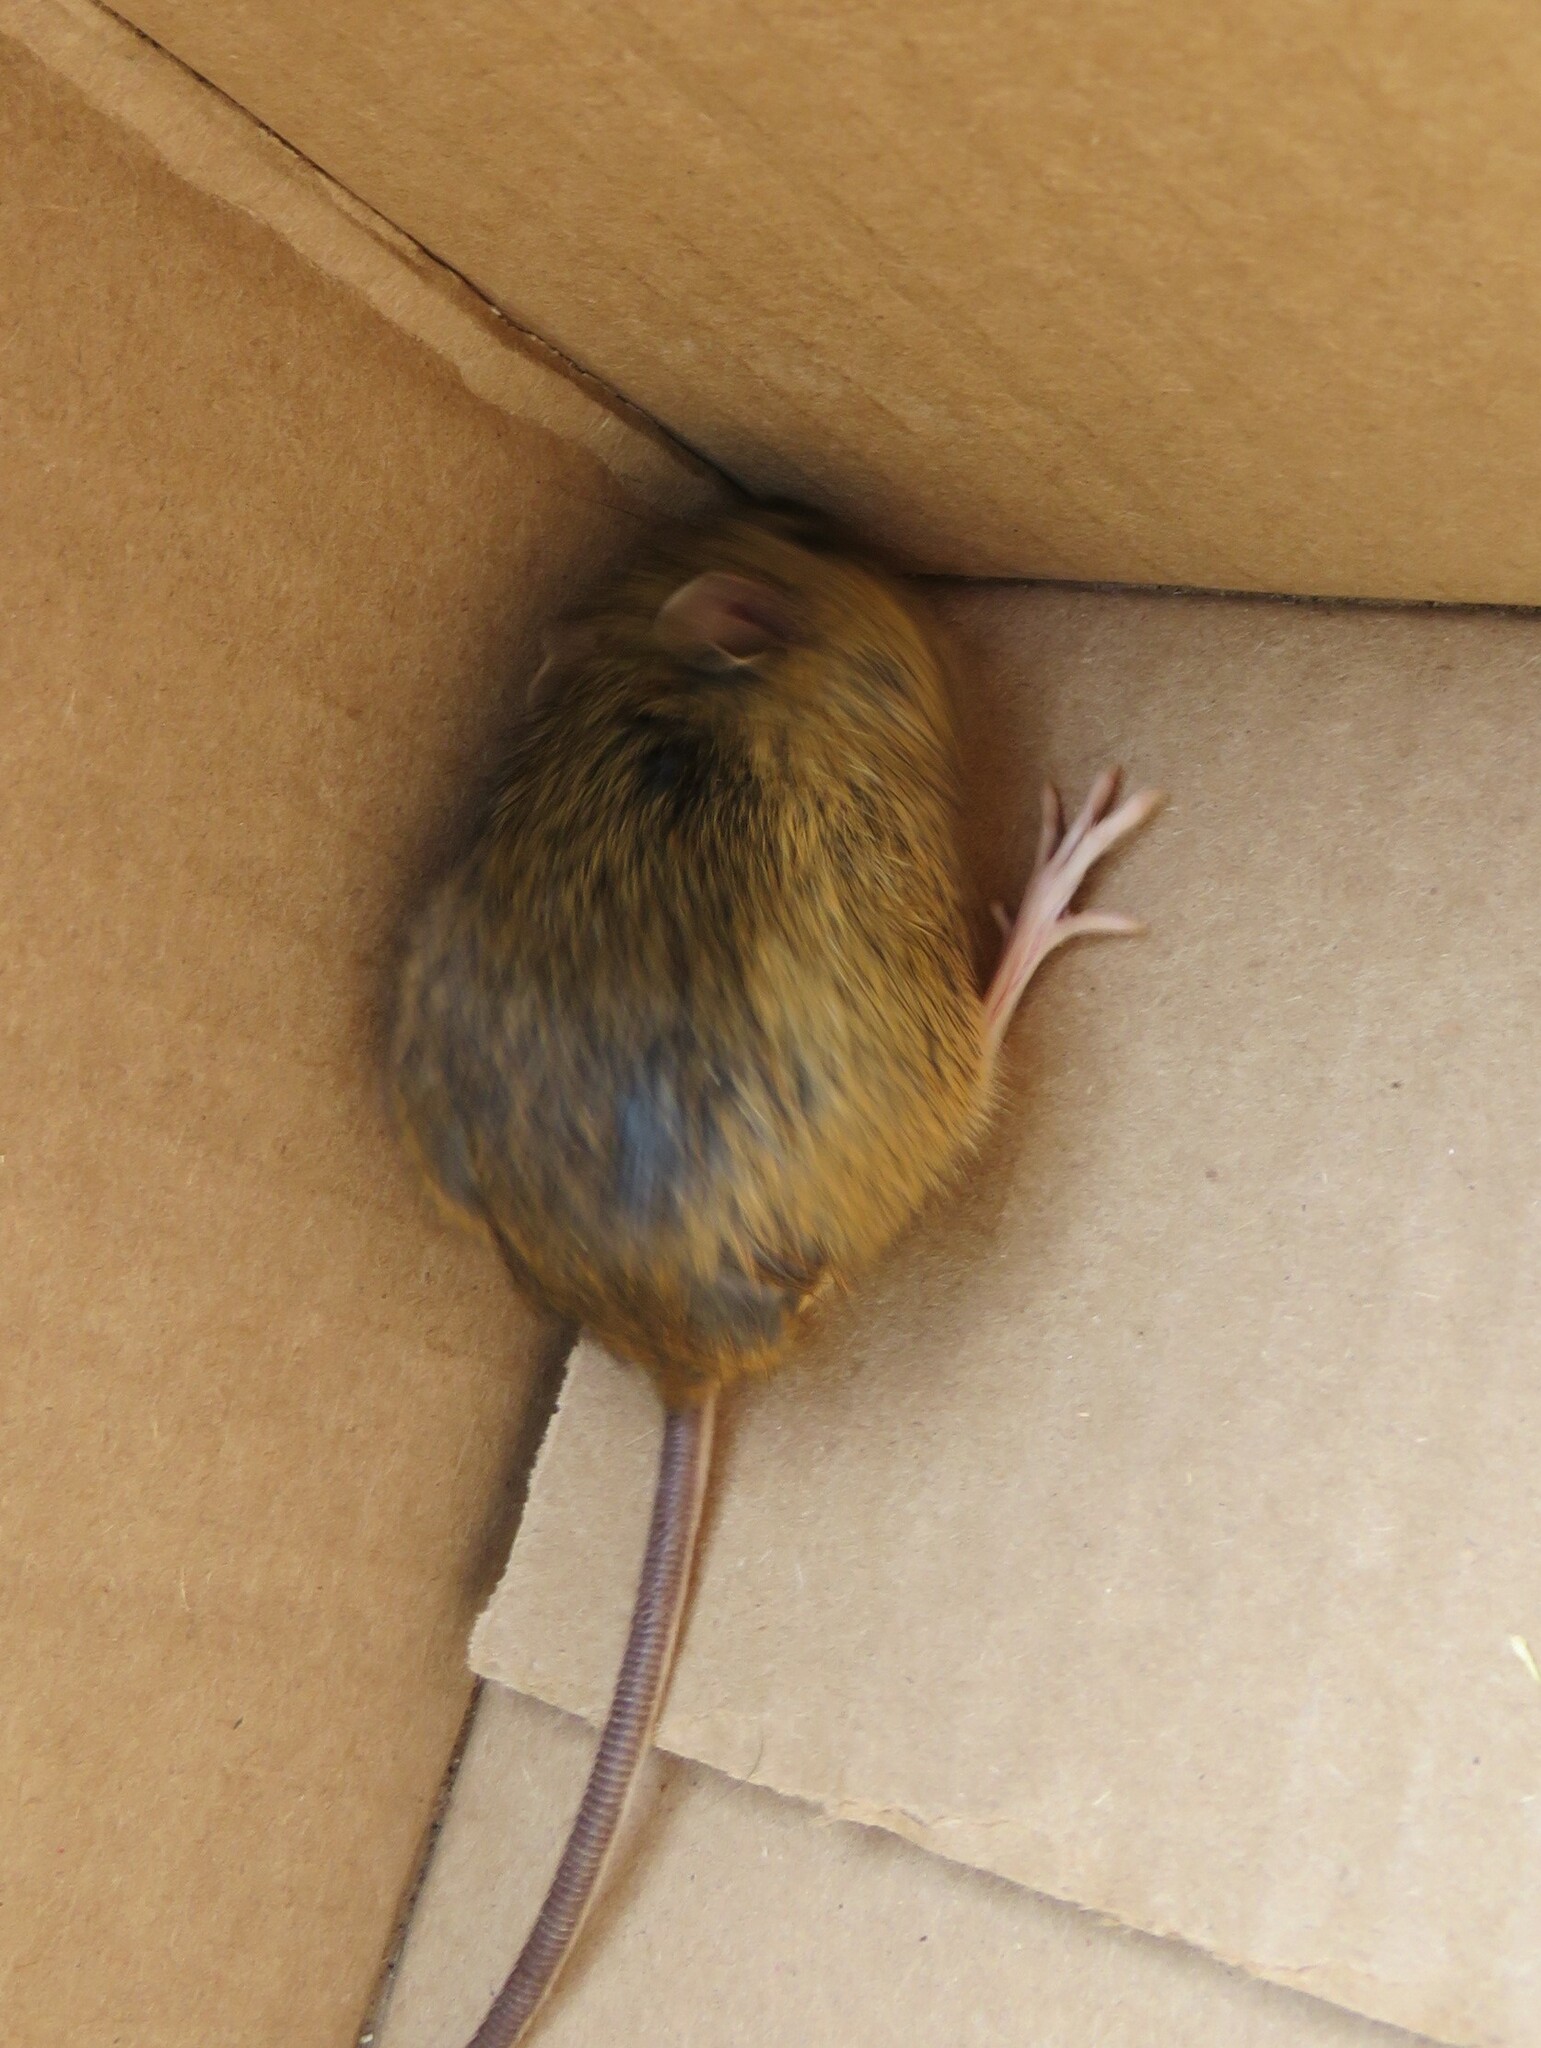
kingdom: Animalia
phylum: Chordata
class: Mammalia
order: Rodentia
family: Dipodidae
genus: Zapus
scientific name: Zapus hudsonius
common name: Meadow jumping mouse
